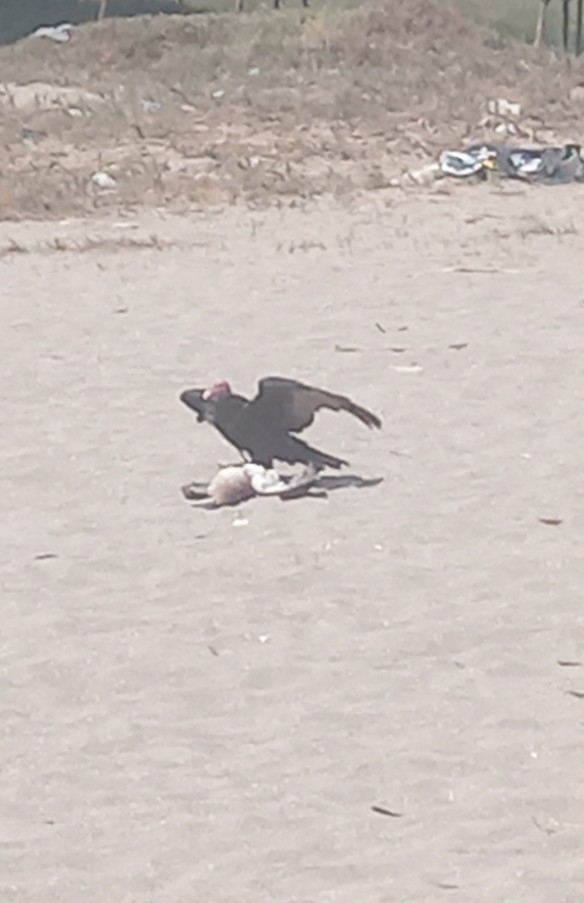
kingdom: Animalia
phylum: Chordata
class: Aves
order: Accipitriformes
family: Cathartidae
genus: Cathartes
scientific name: Cathartes aura
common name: Turkey vulture
